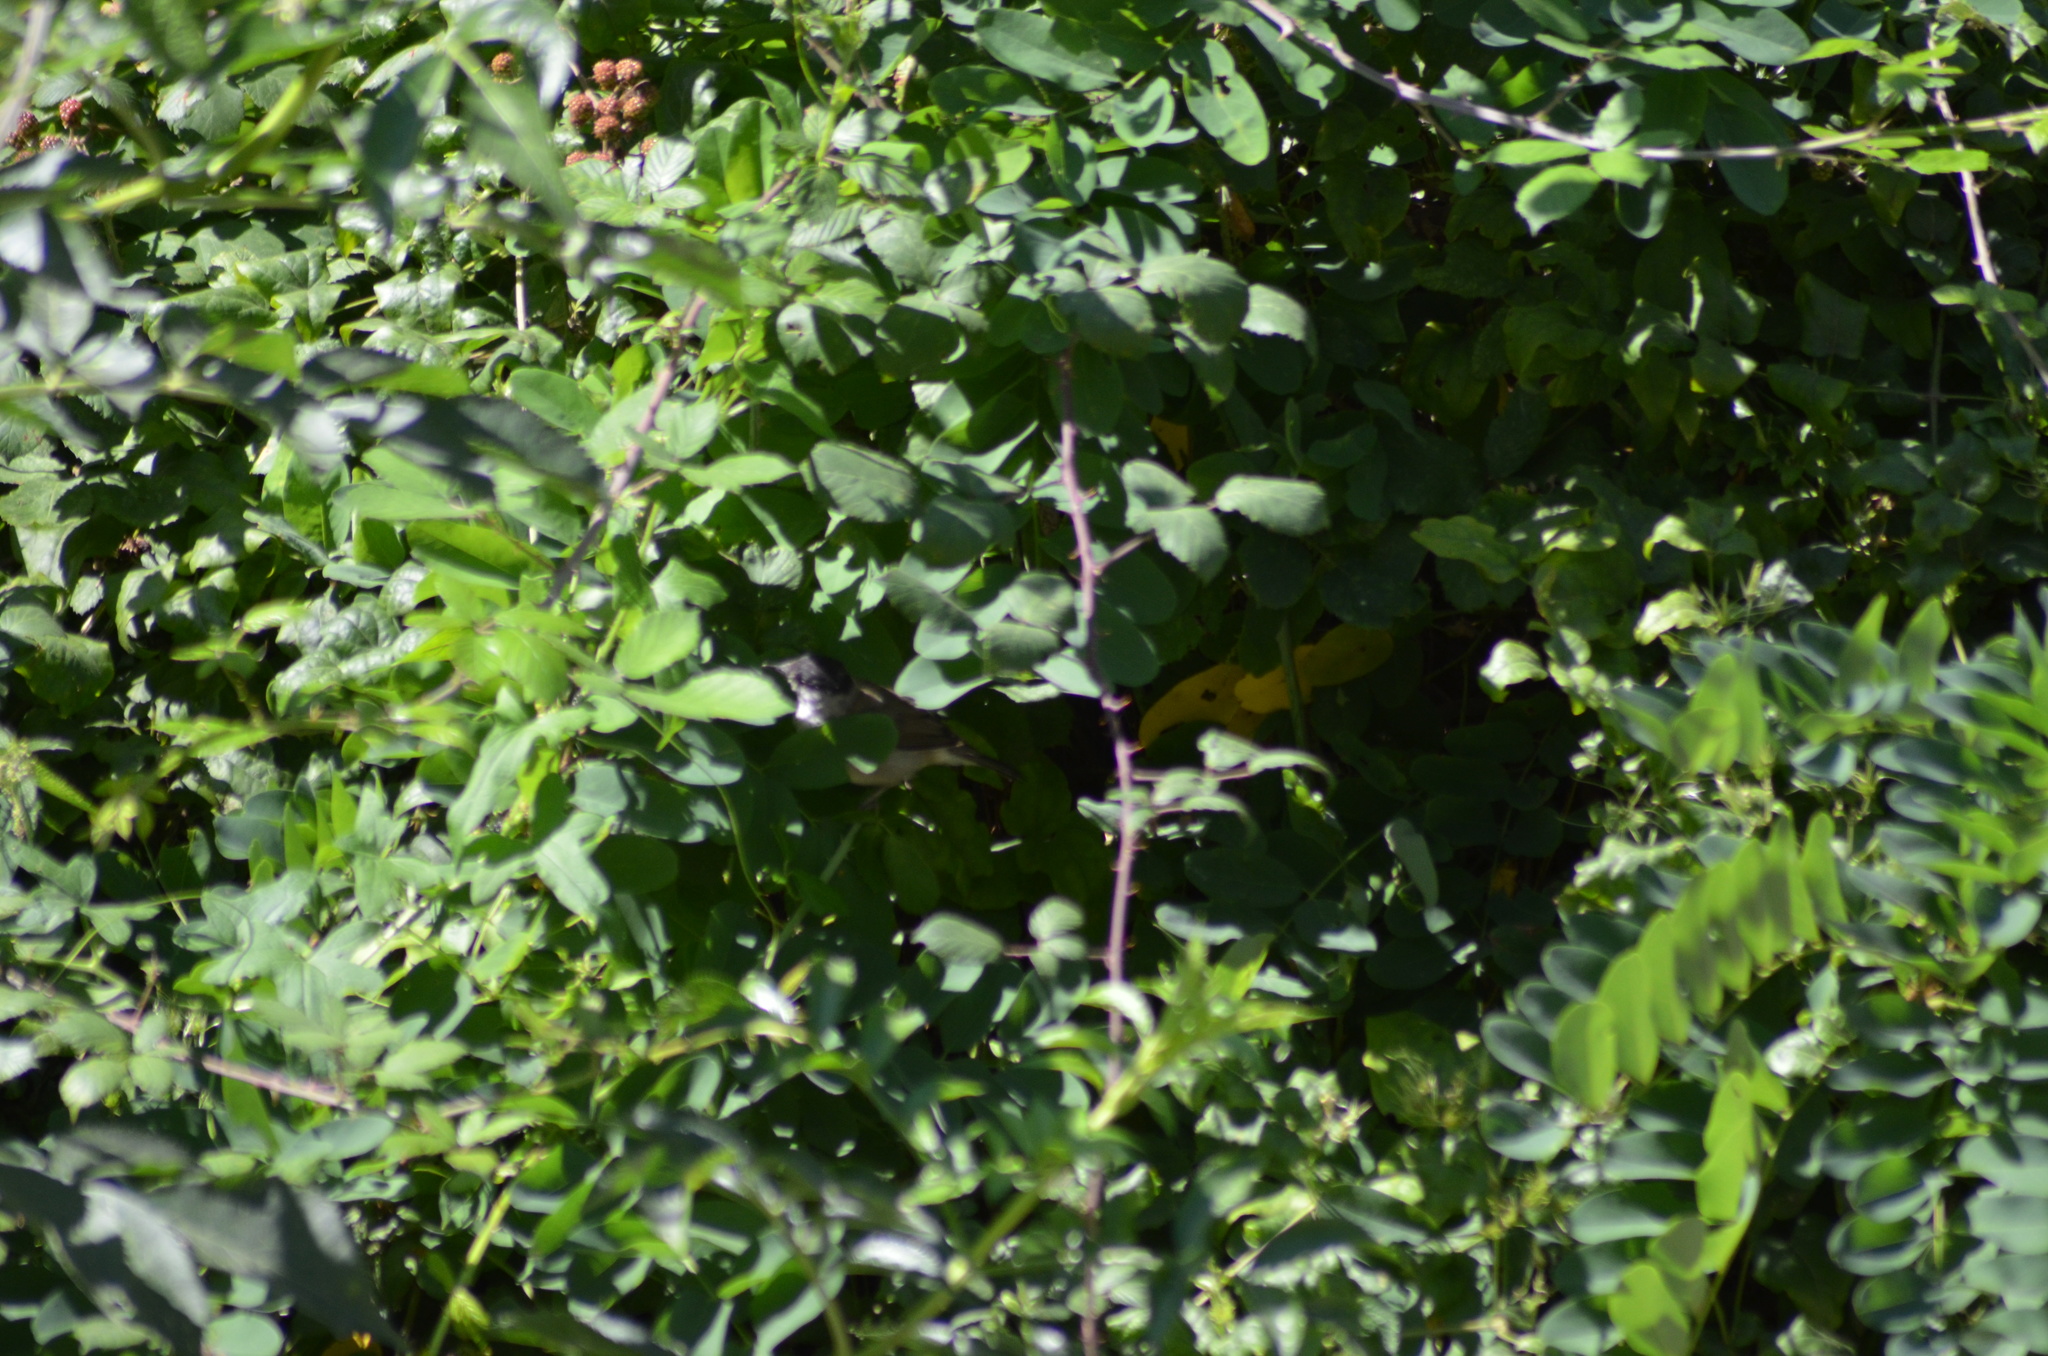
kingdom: Animalia
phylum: Chordata
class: Aves
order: Passeriformes
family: Sylviidae
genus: Sylvia
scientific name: Sylvia atricapilla
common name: Eurasian blackcap
